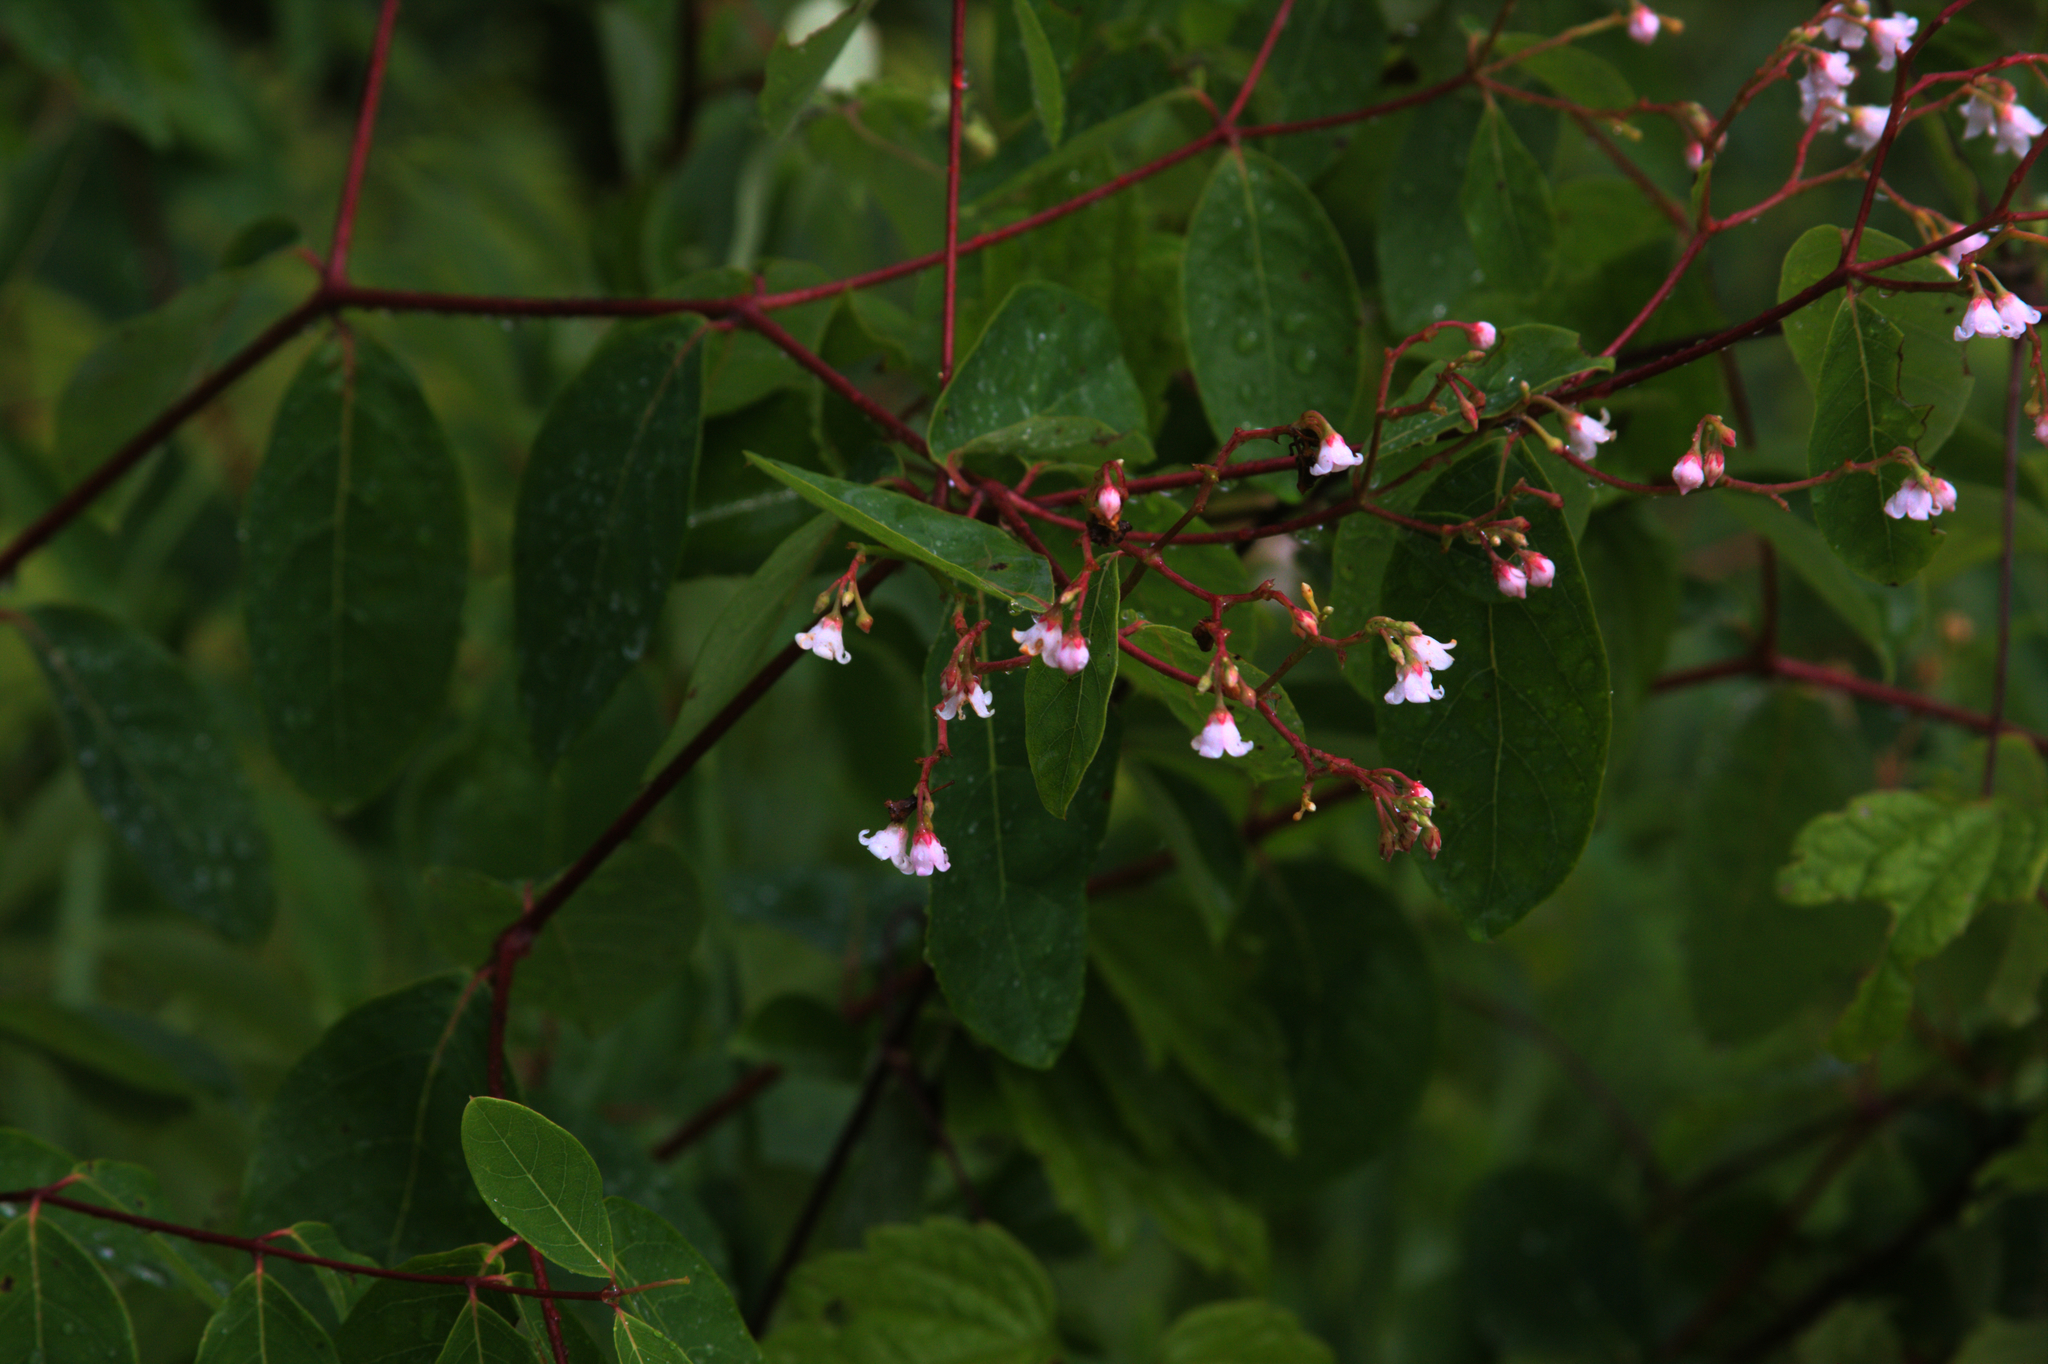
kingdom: Plantae
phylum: Tracheophyta
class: Magnoliopsida
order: Gentianales
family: Apocynaceae
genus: Apocynum
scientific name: Apocynum androsaemifolium
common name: Spreading dogbane
